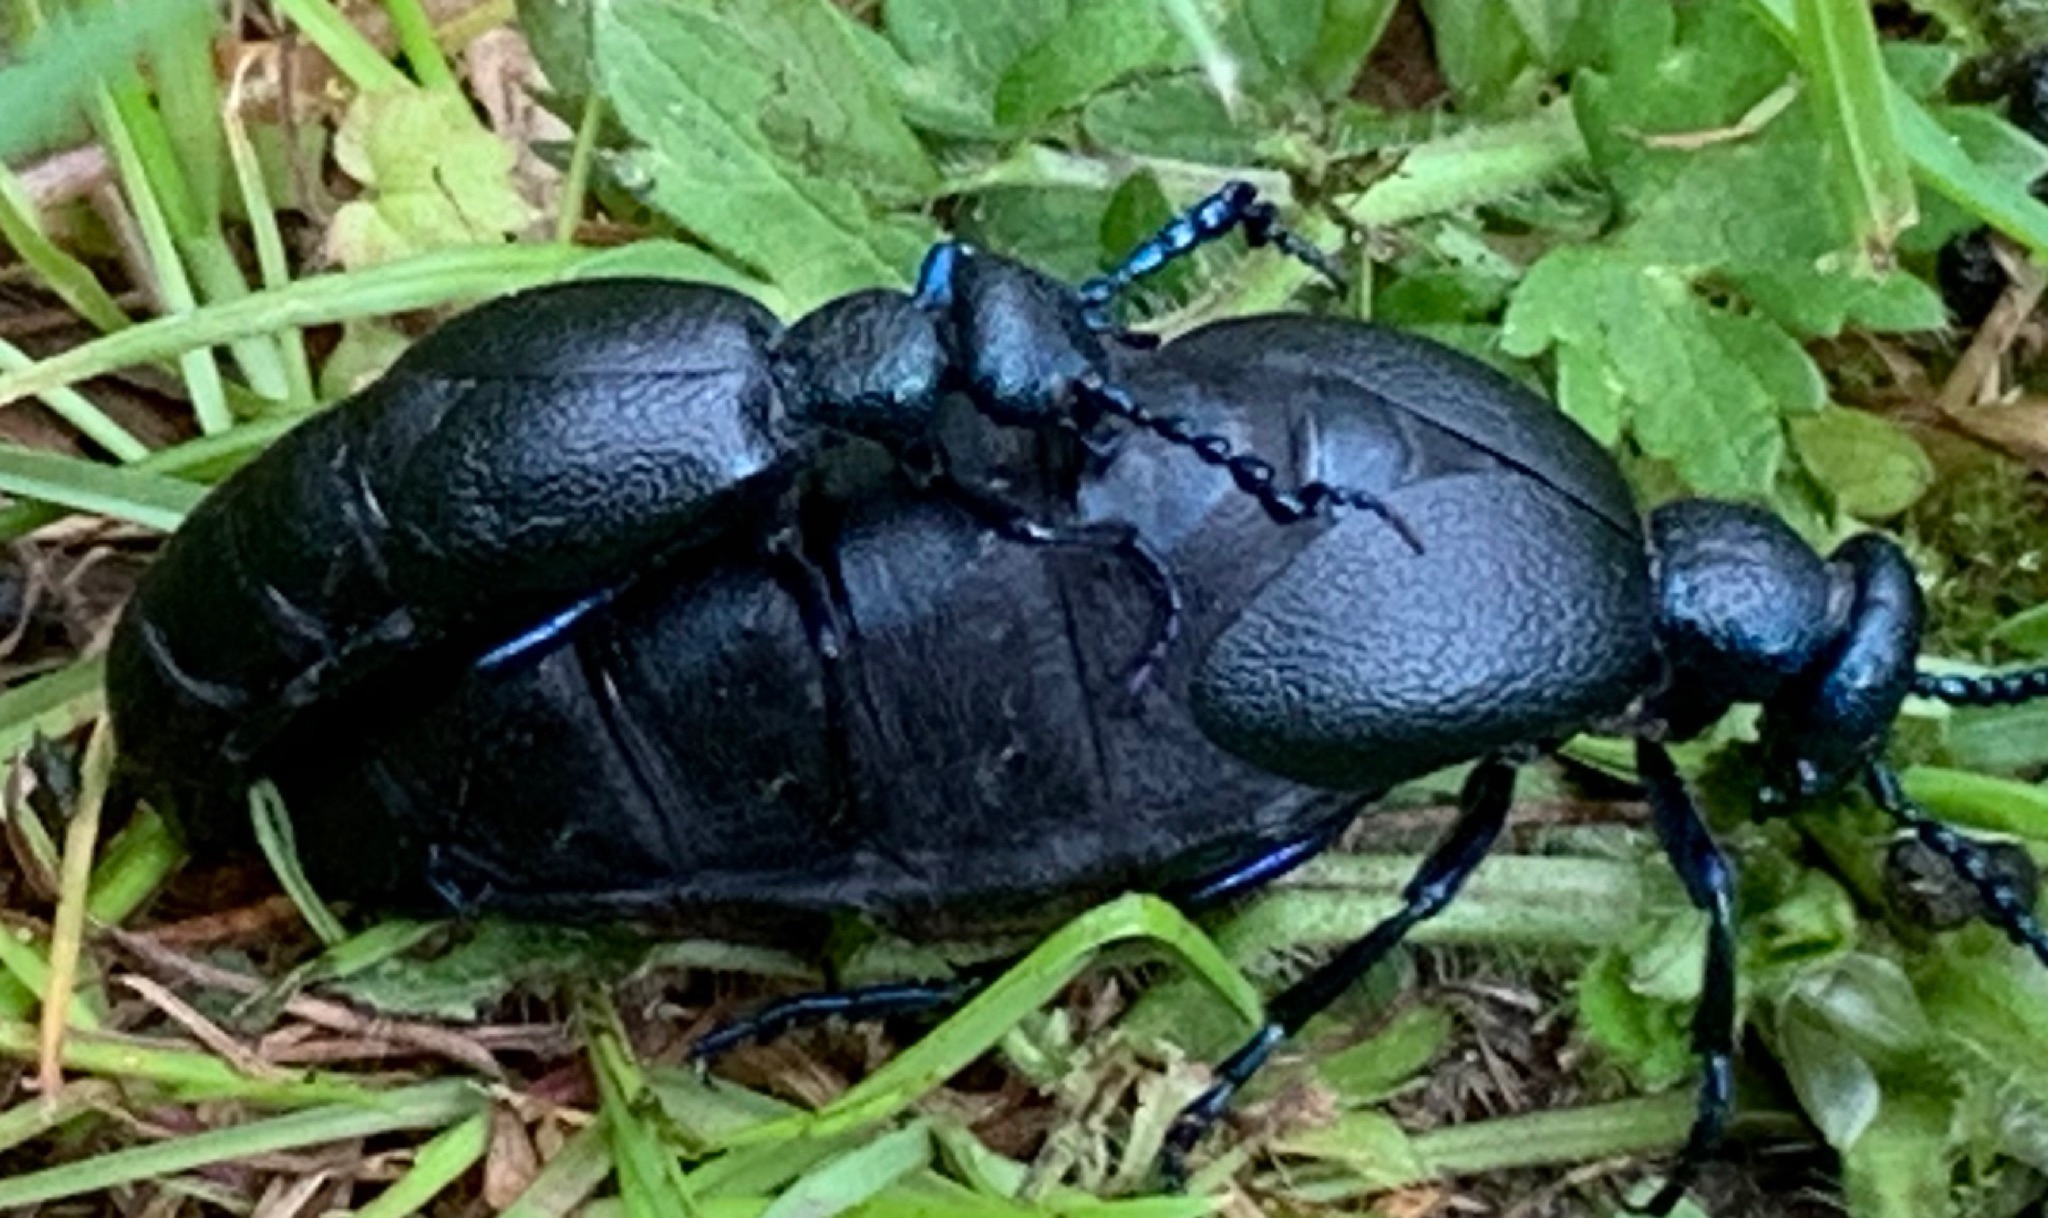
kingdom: Animalia
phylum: Arthropoda
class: Insecta
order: Coleoptera
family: Meloidae
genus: Meloe
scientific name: Meloe proscarabaeus
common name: Black oil-beetle
